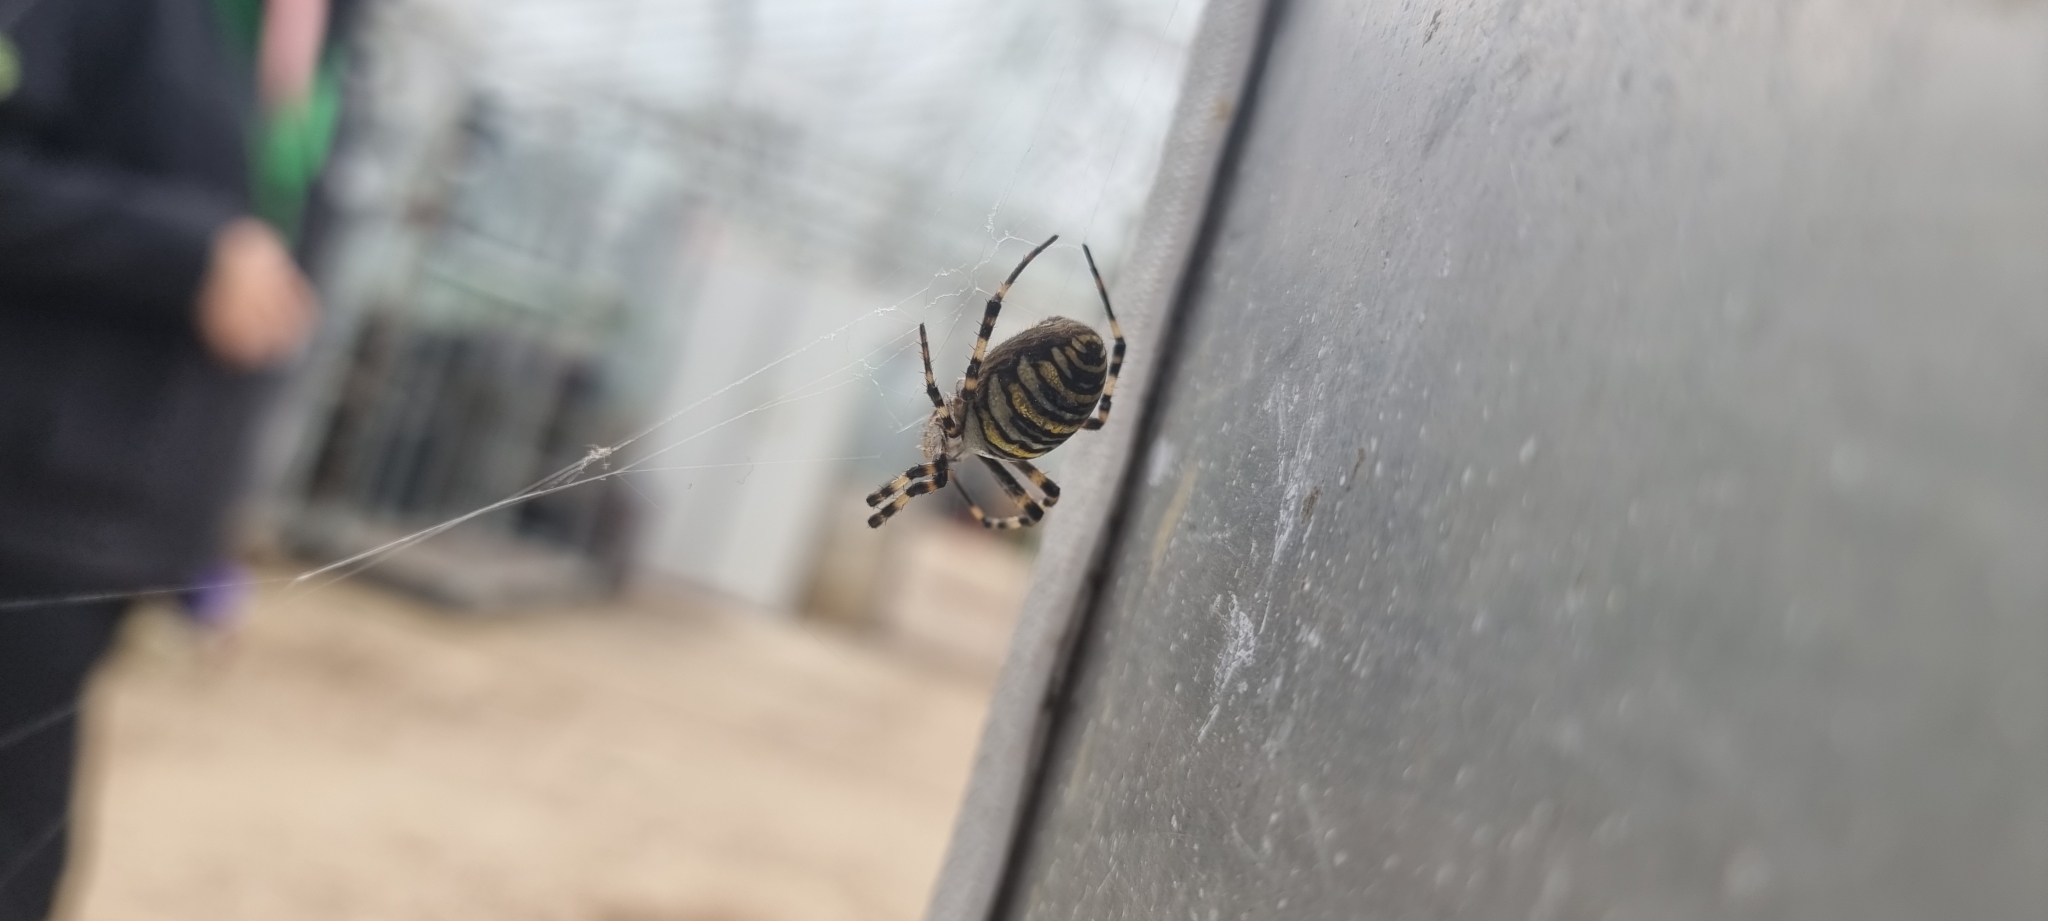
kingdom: Animalia
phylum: Arthropoda
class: Arachnida
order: Araneae
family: Araneidae
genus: Argiope
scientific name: Argiope bruennichi
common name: Wasp spider
